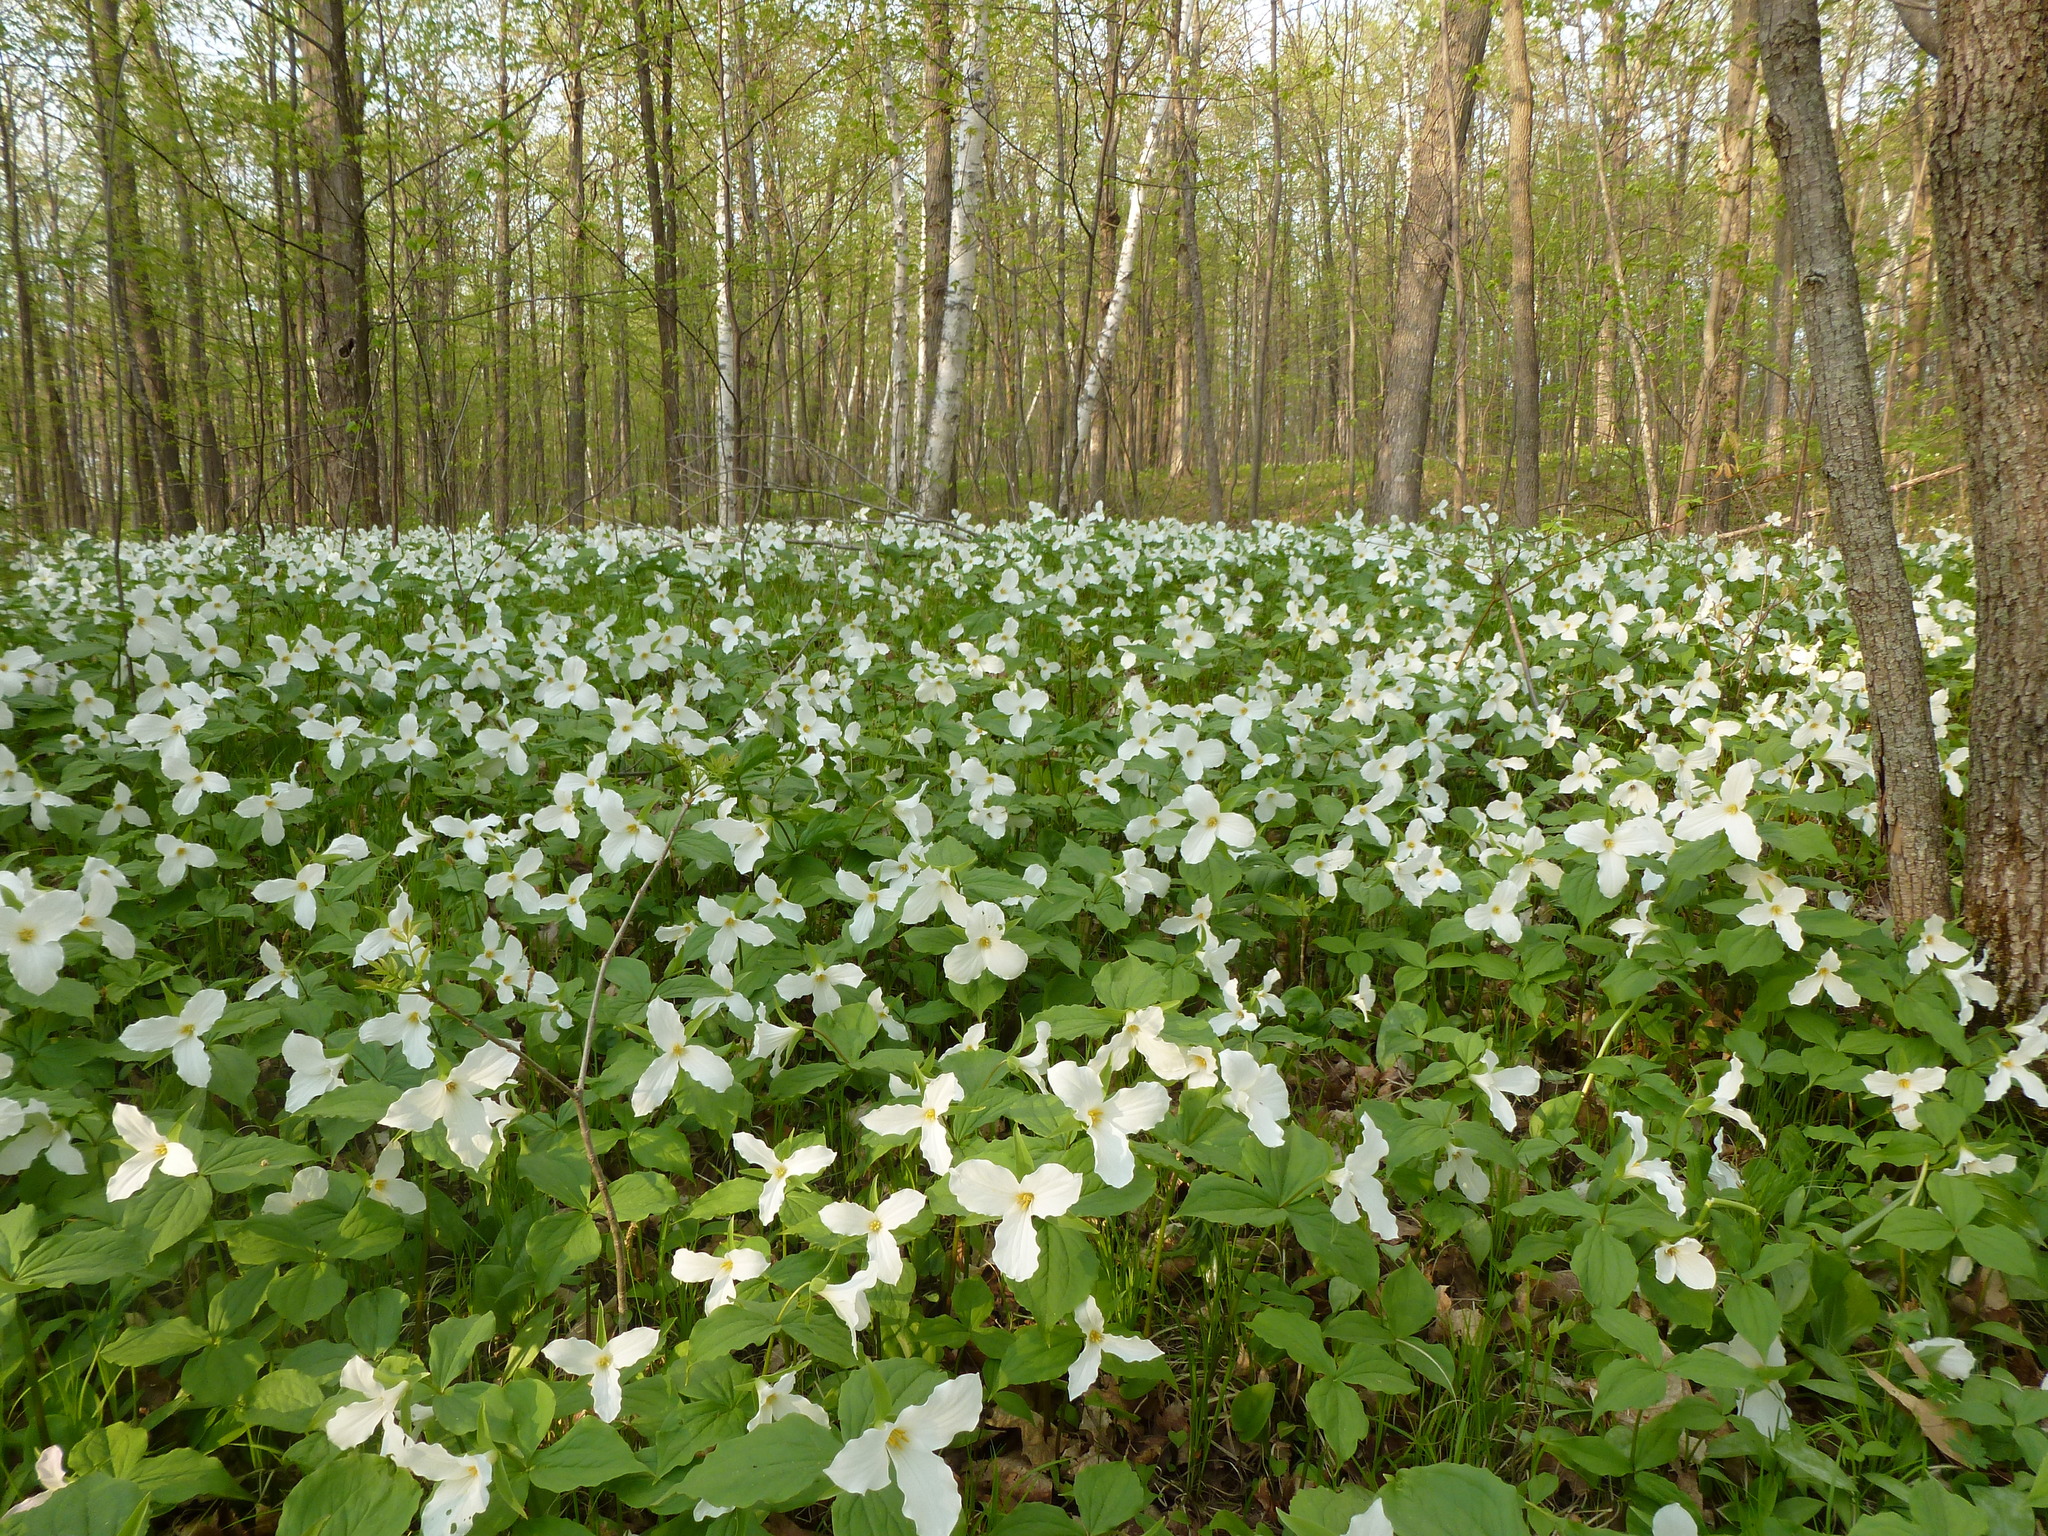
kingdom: Plantae
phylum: Tracheophyta
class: Liliopsida
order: Liliales
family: Melanthiaceae
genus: Trillium
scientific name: Trillium grandiflorum
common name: Great white trillium
